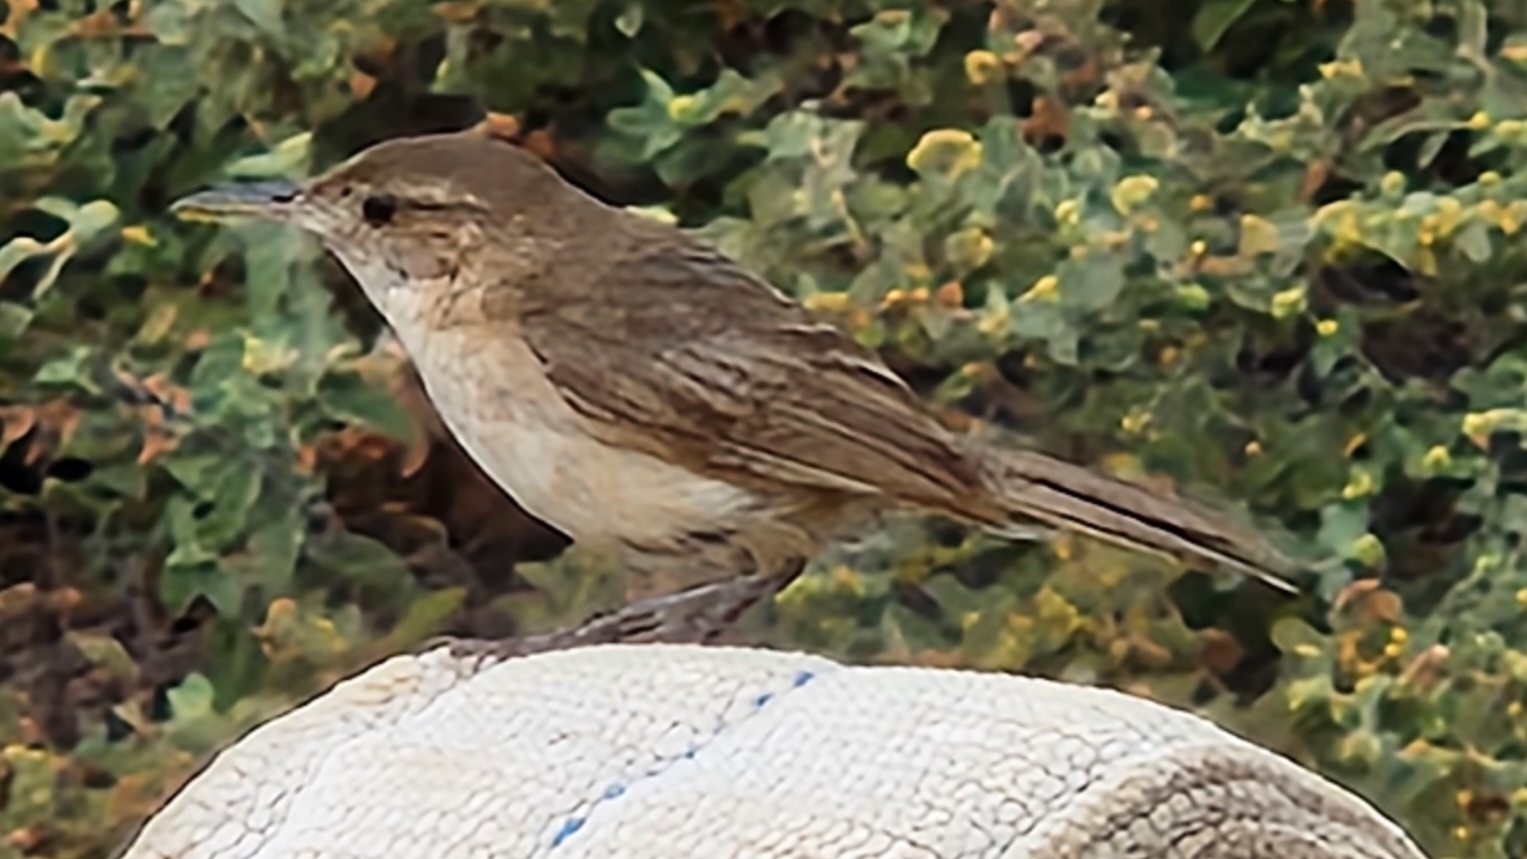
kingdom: Animalia
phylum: Chordata
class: Aves
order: Passeriformes
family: Troglodytidae
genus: Troglodytes
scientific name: Troglodytes tanneri
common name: Clarion wren
